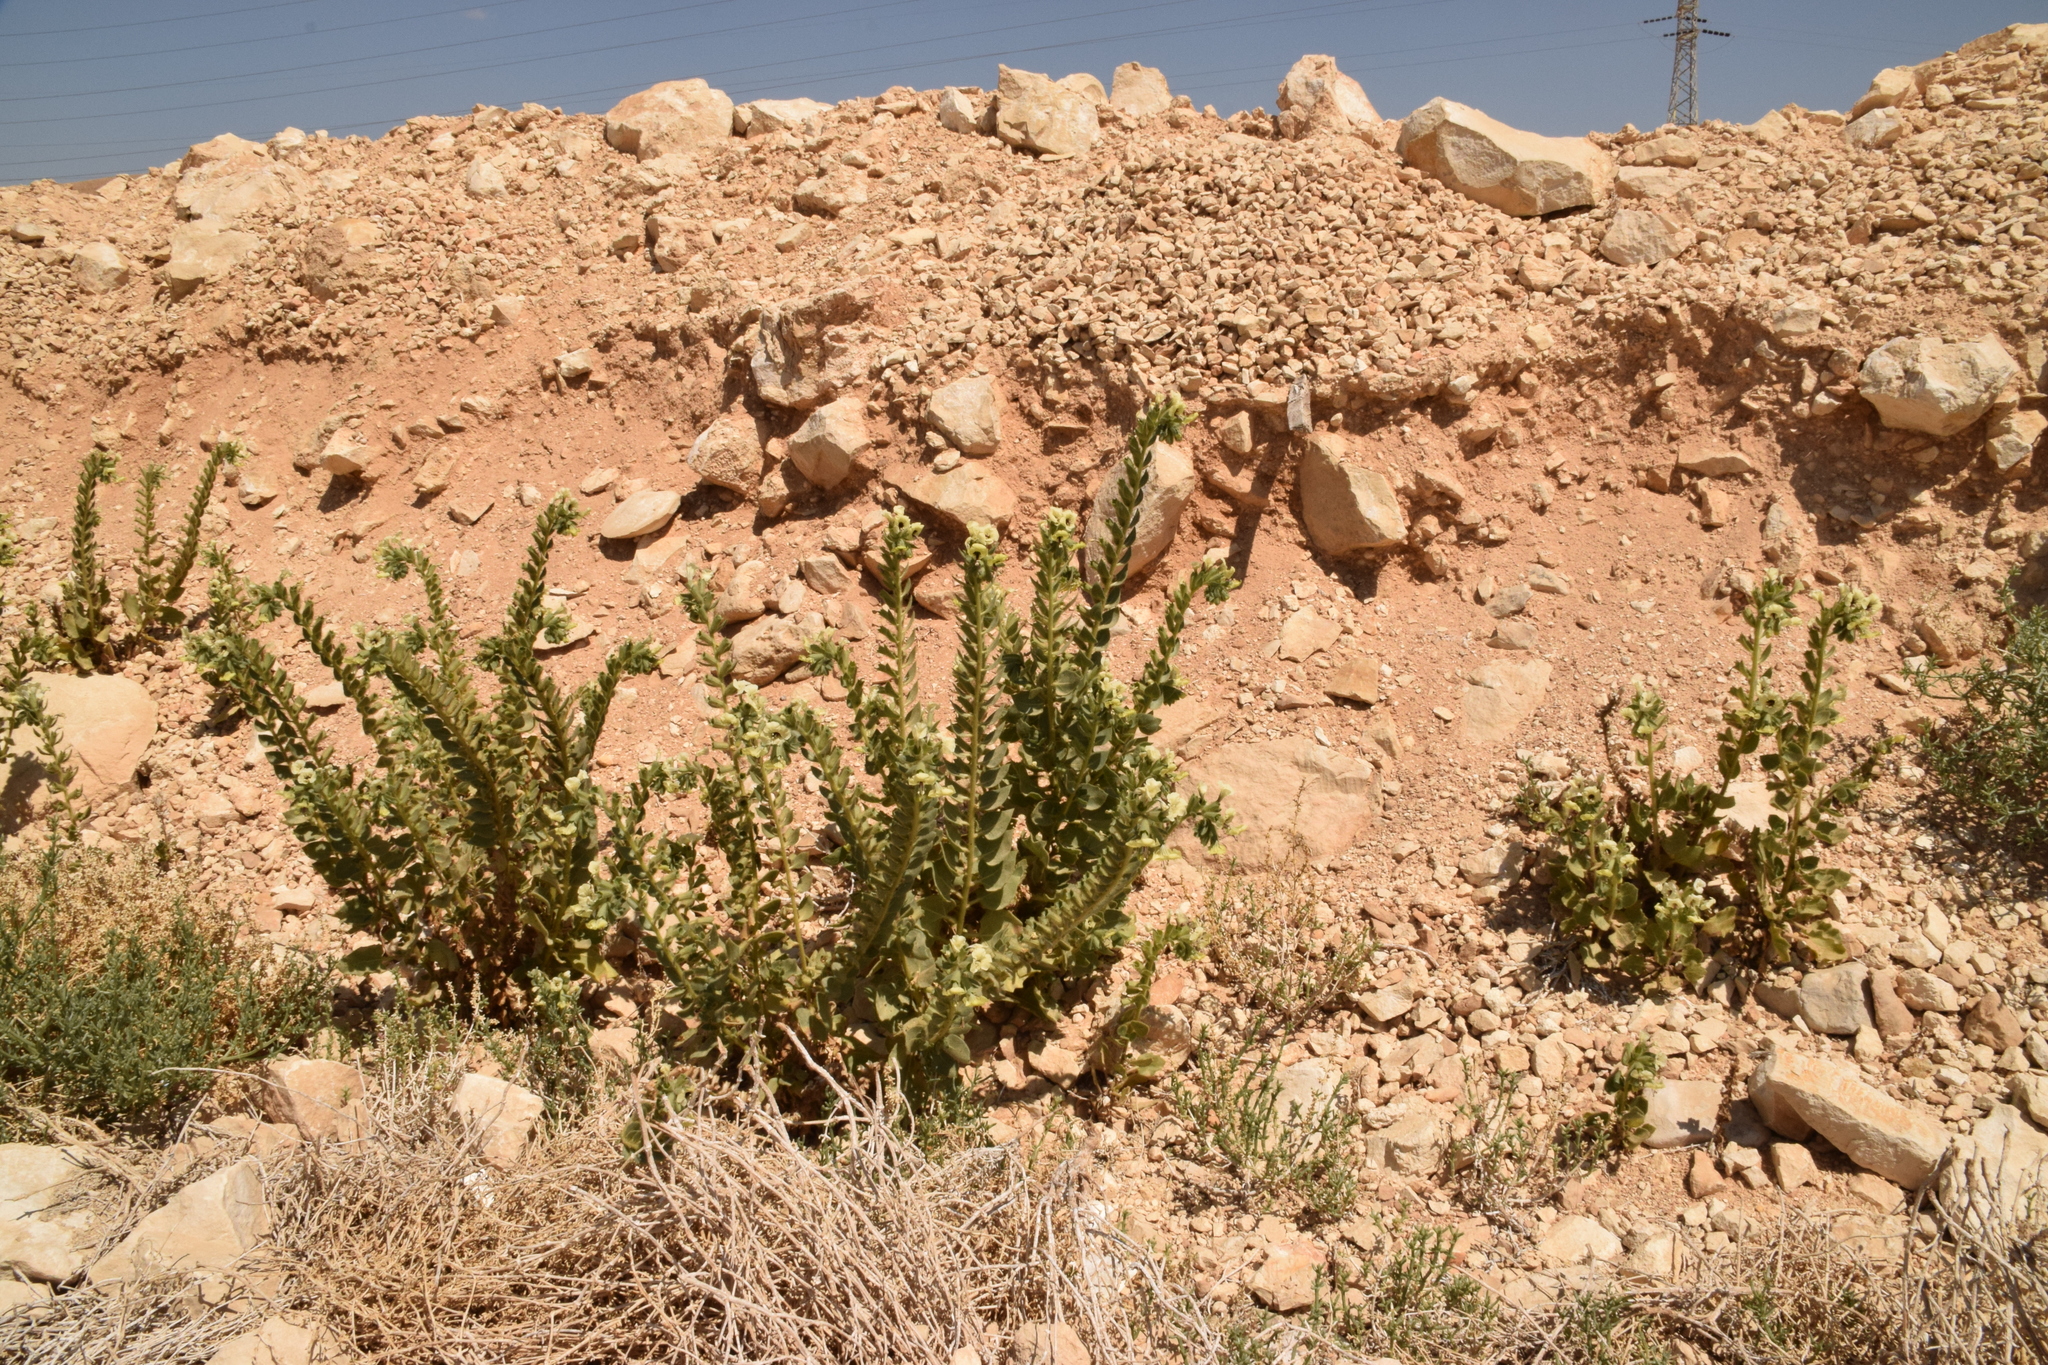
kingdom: Plantae
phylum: Tracheophyta
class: Magnoliopsida
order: Solanales
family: Solanaceae
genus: Hyoscyamus
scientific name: Hyoscyamus desertorum
